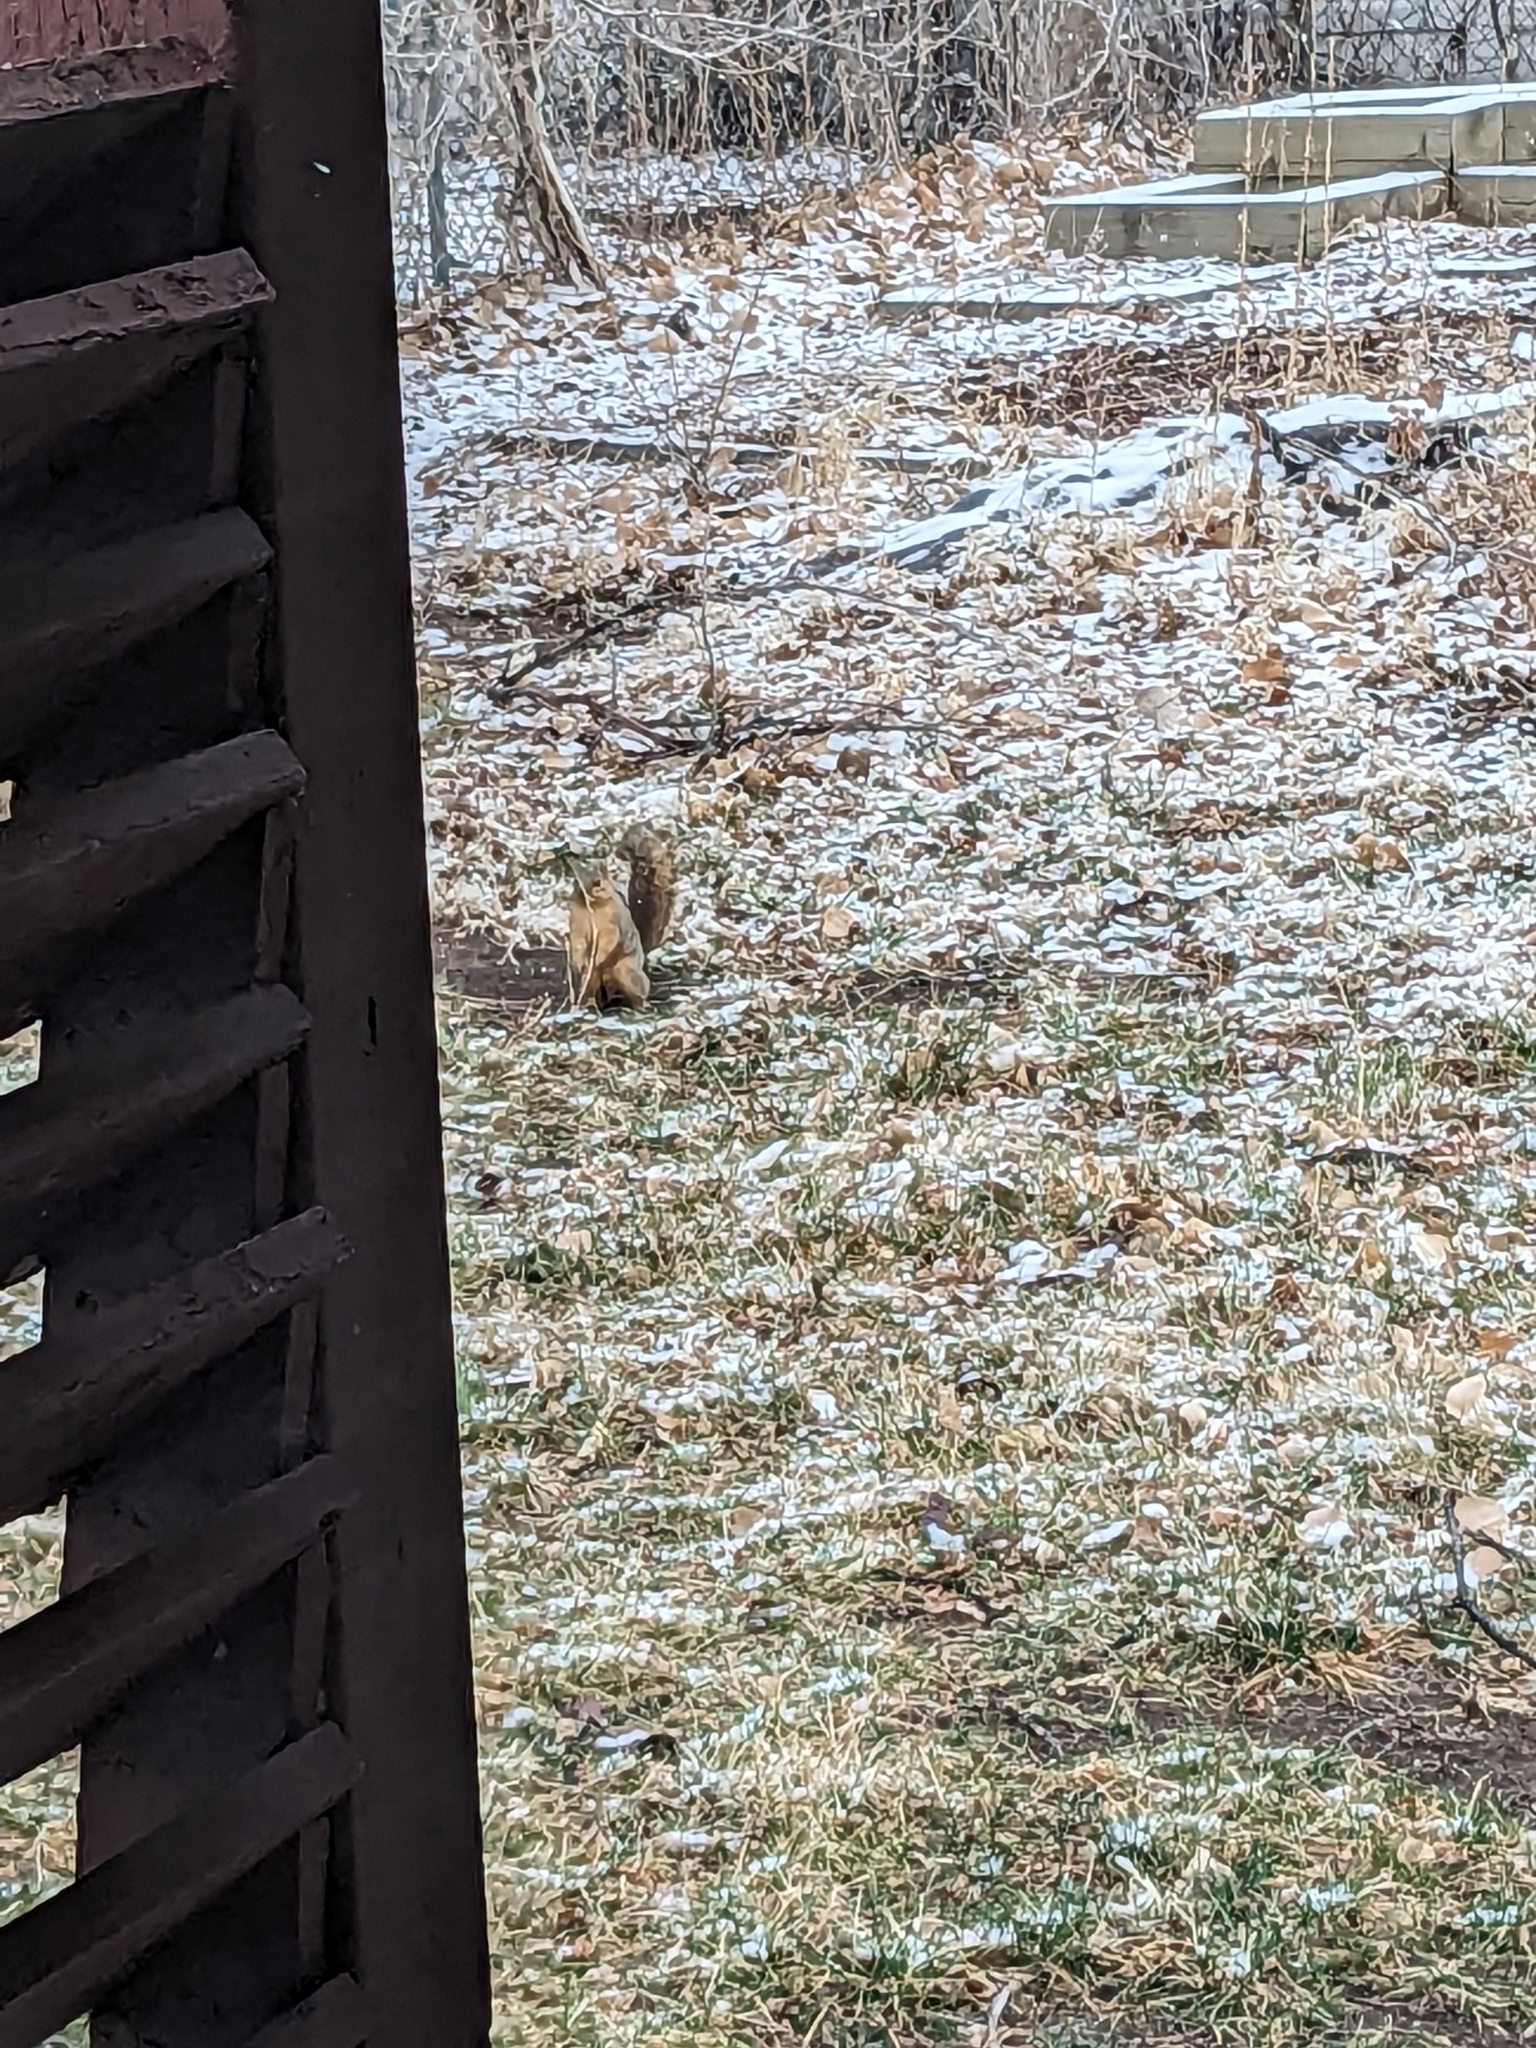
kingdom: Animalia
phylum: Chordata
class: Mammalia
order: Rodentia
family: Sciuridae
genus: Sciurus
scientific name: Sciurus niger
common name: Fox squirrel
